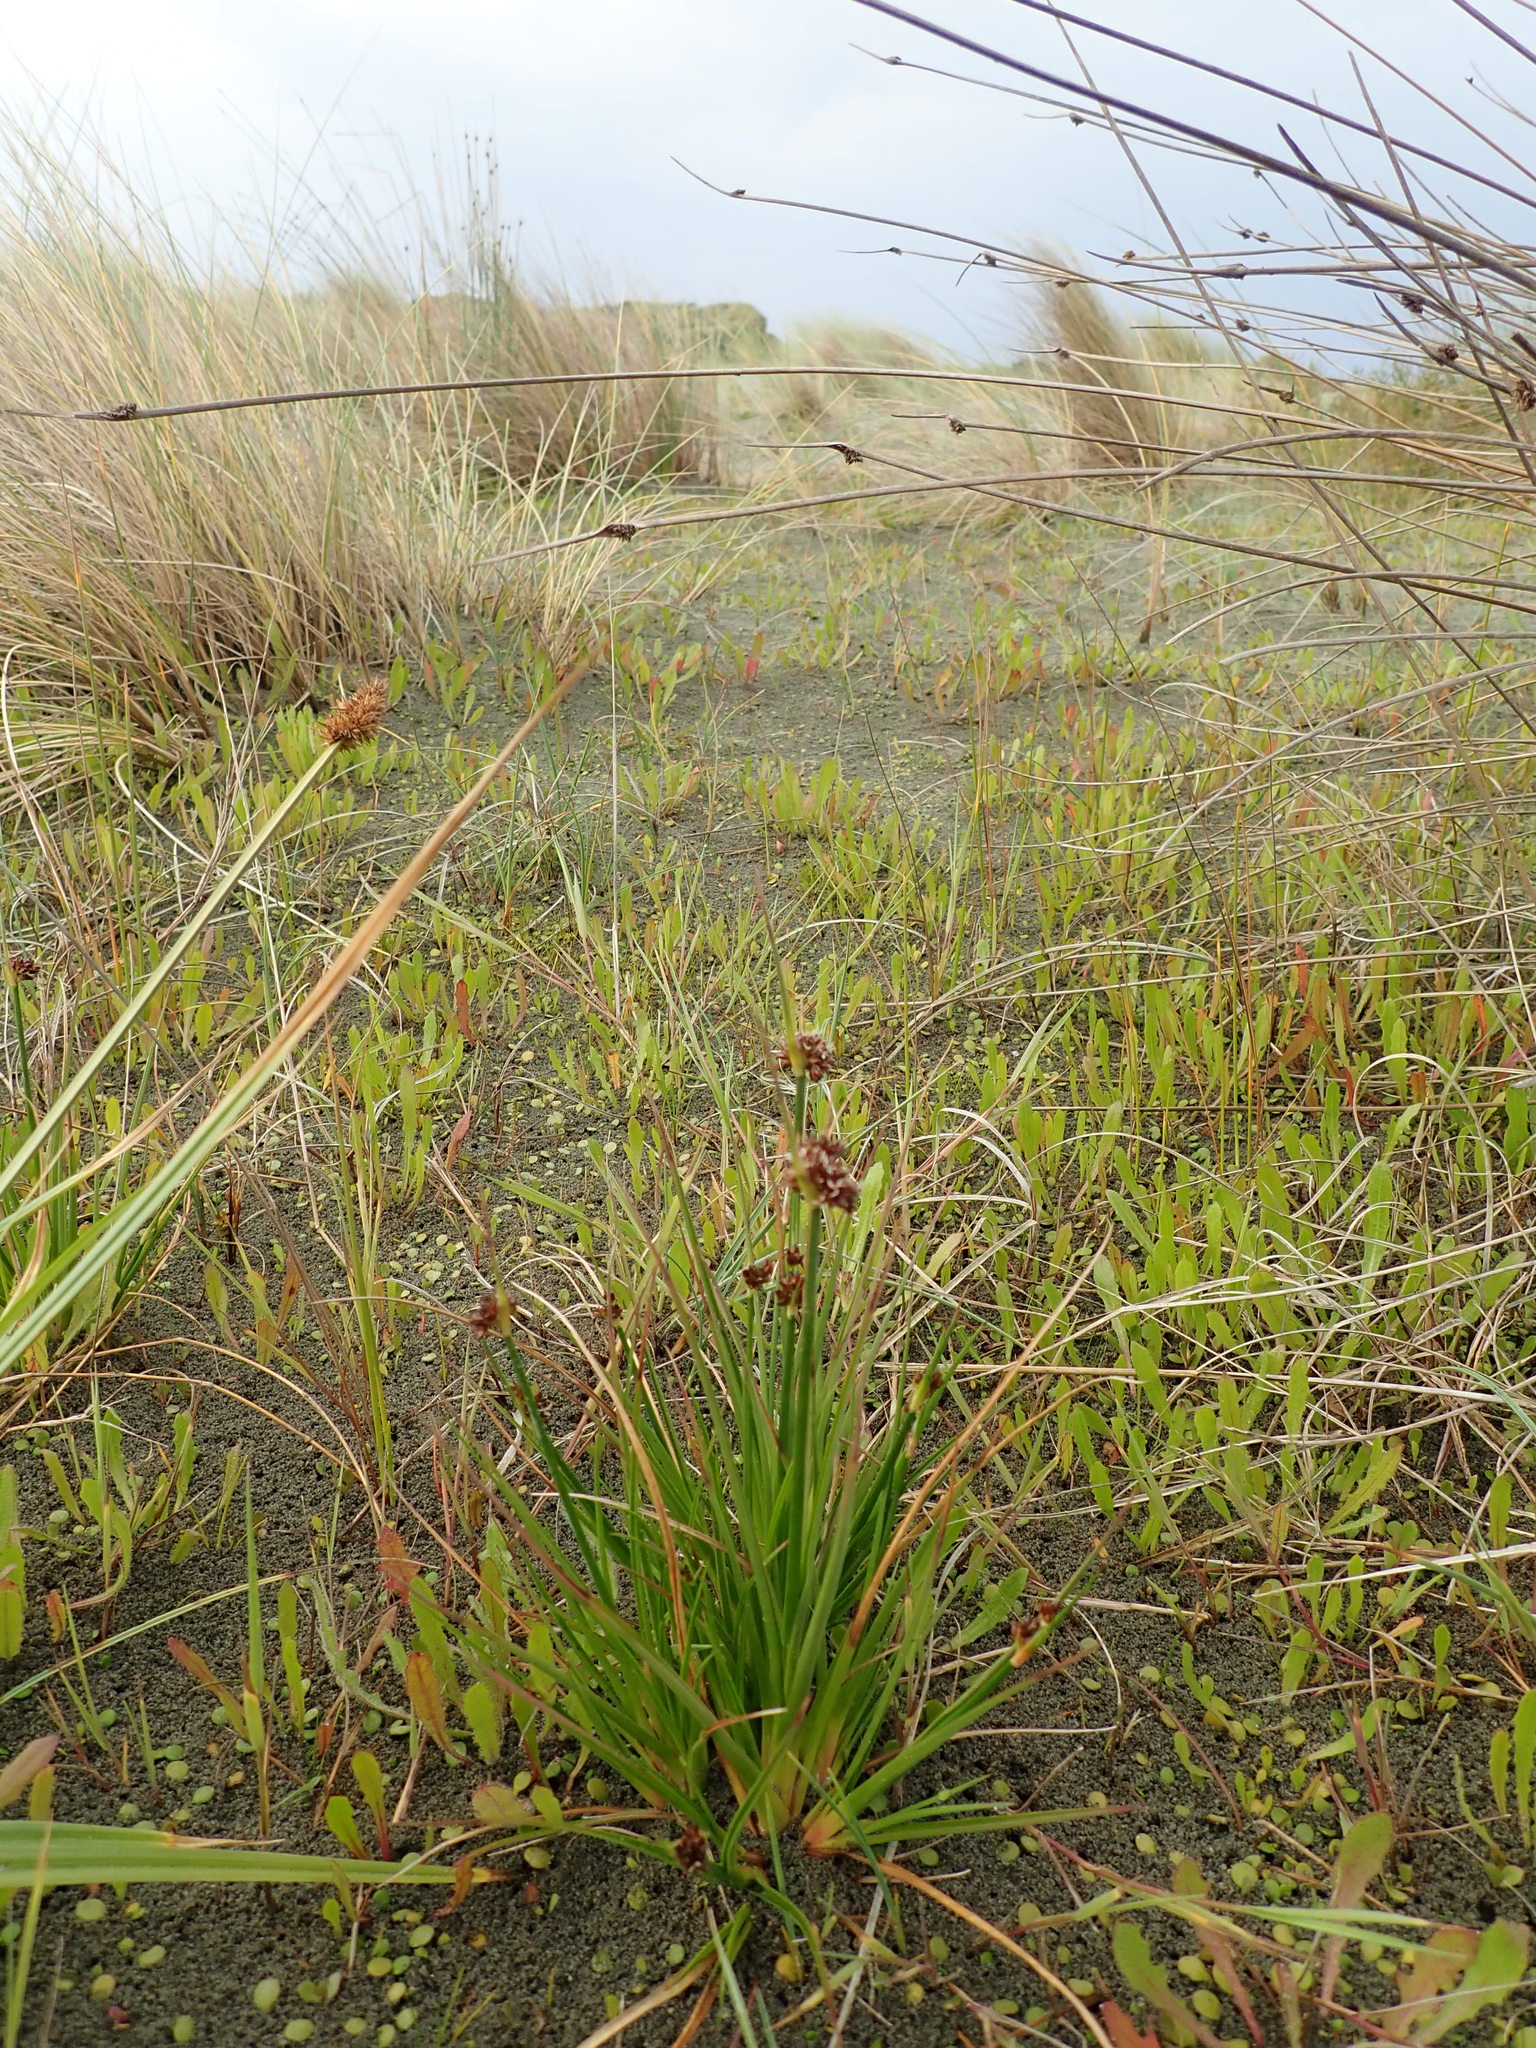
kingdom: Plantae
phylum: Tracheophyta
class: Liliopsida
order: Poales
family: Juncaceae
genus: Juncus
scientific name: Juncus caespiticius
